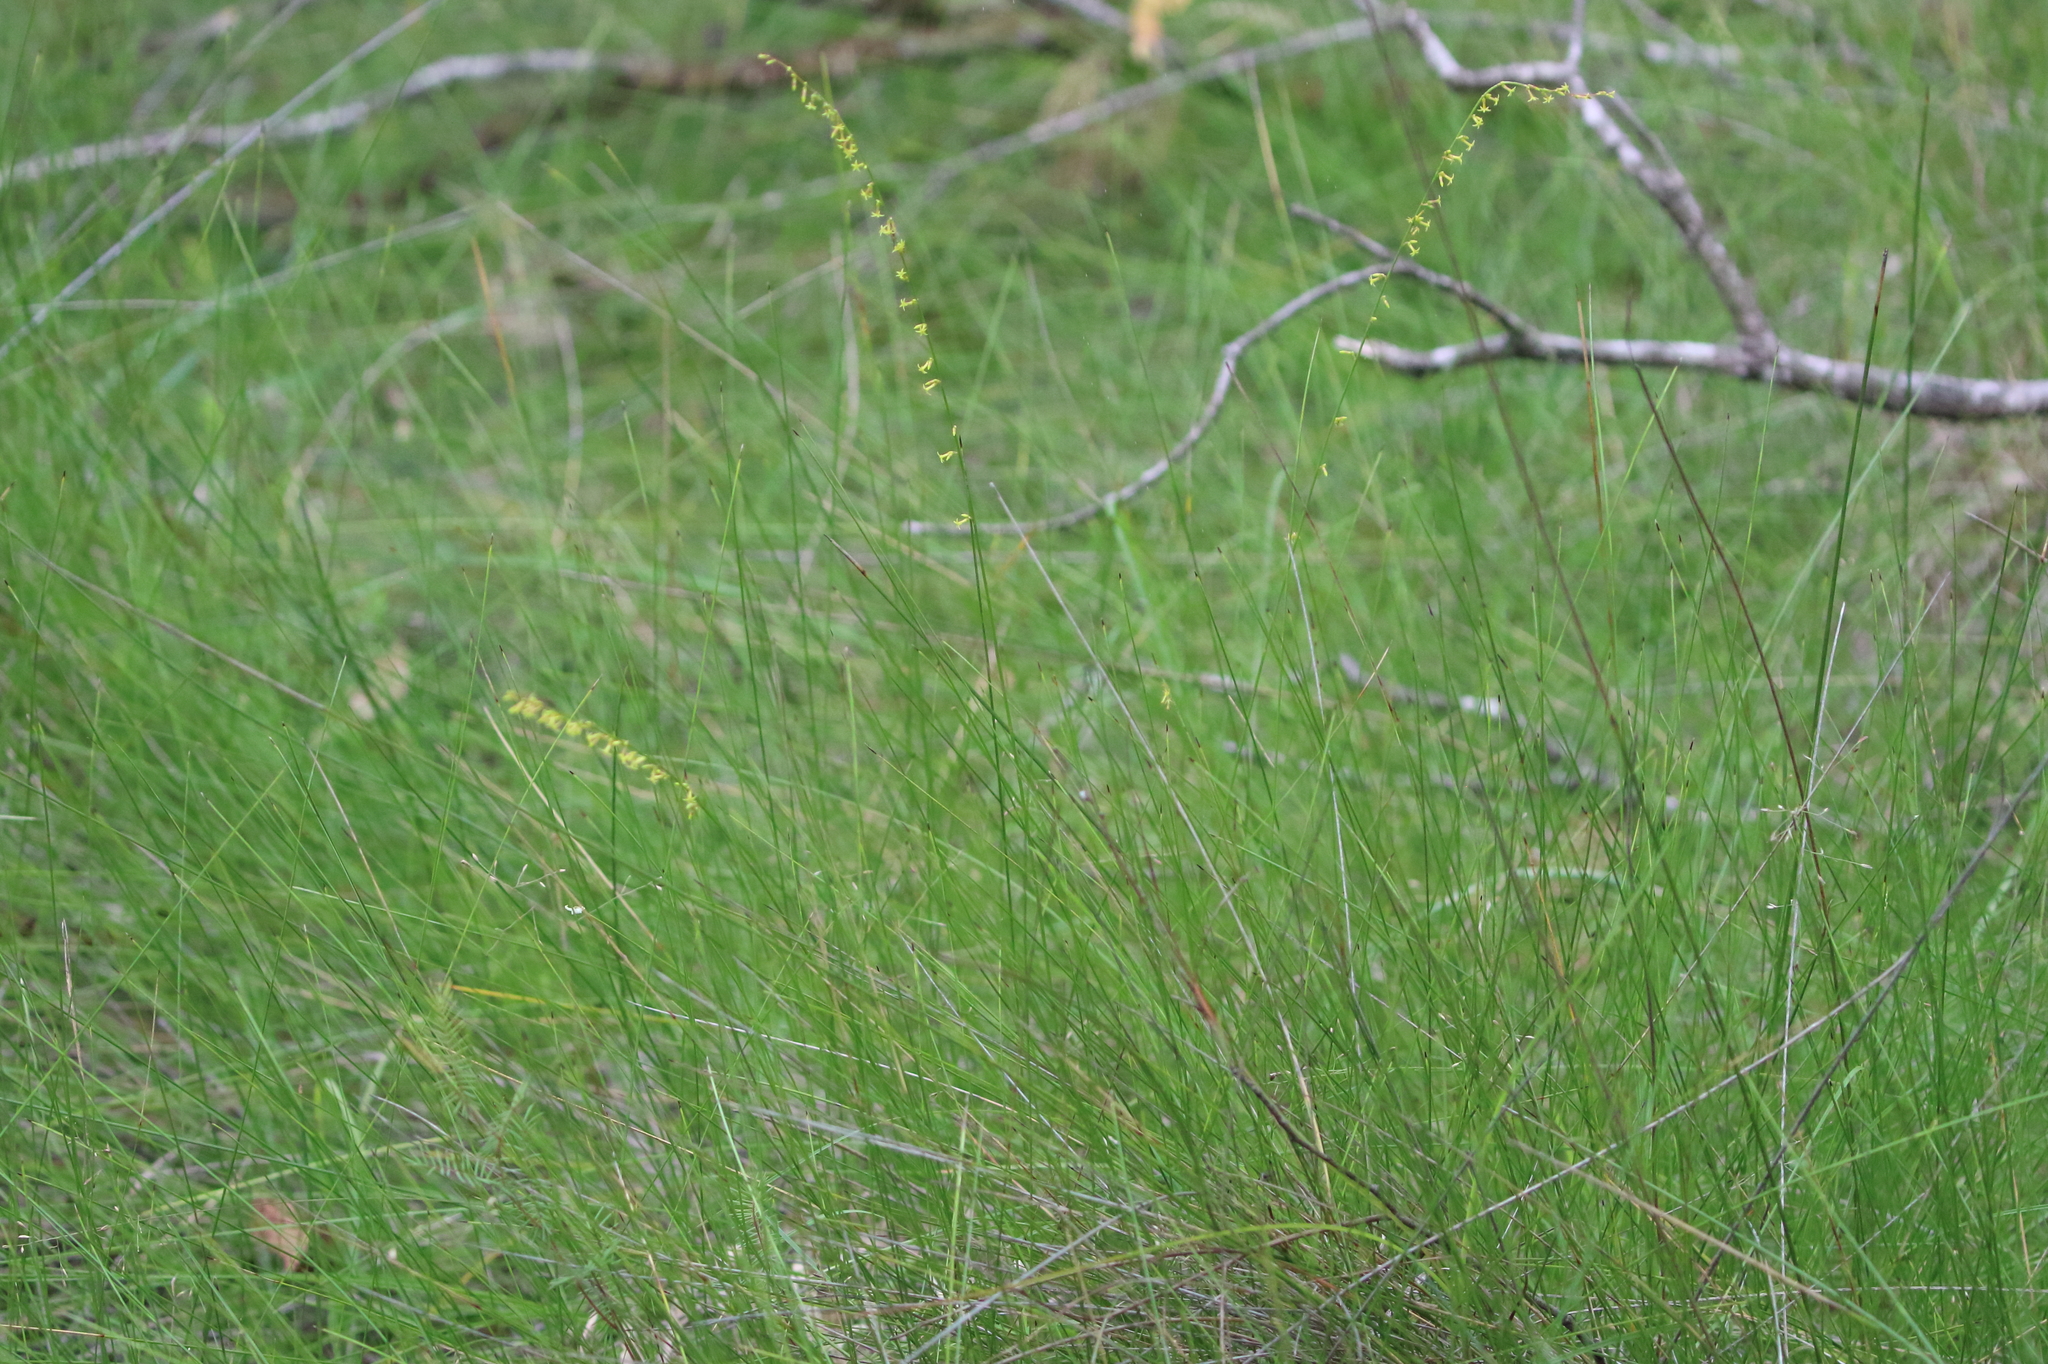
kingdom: Plantae
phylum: Tracheophyta
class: Magnoliopsida
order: Celastrales
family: Celastraceae
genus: Stackhousia
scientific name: Stackhousia nuda
